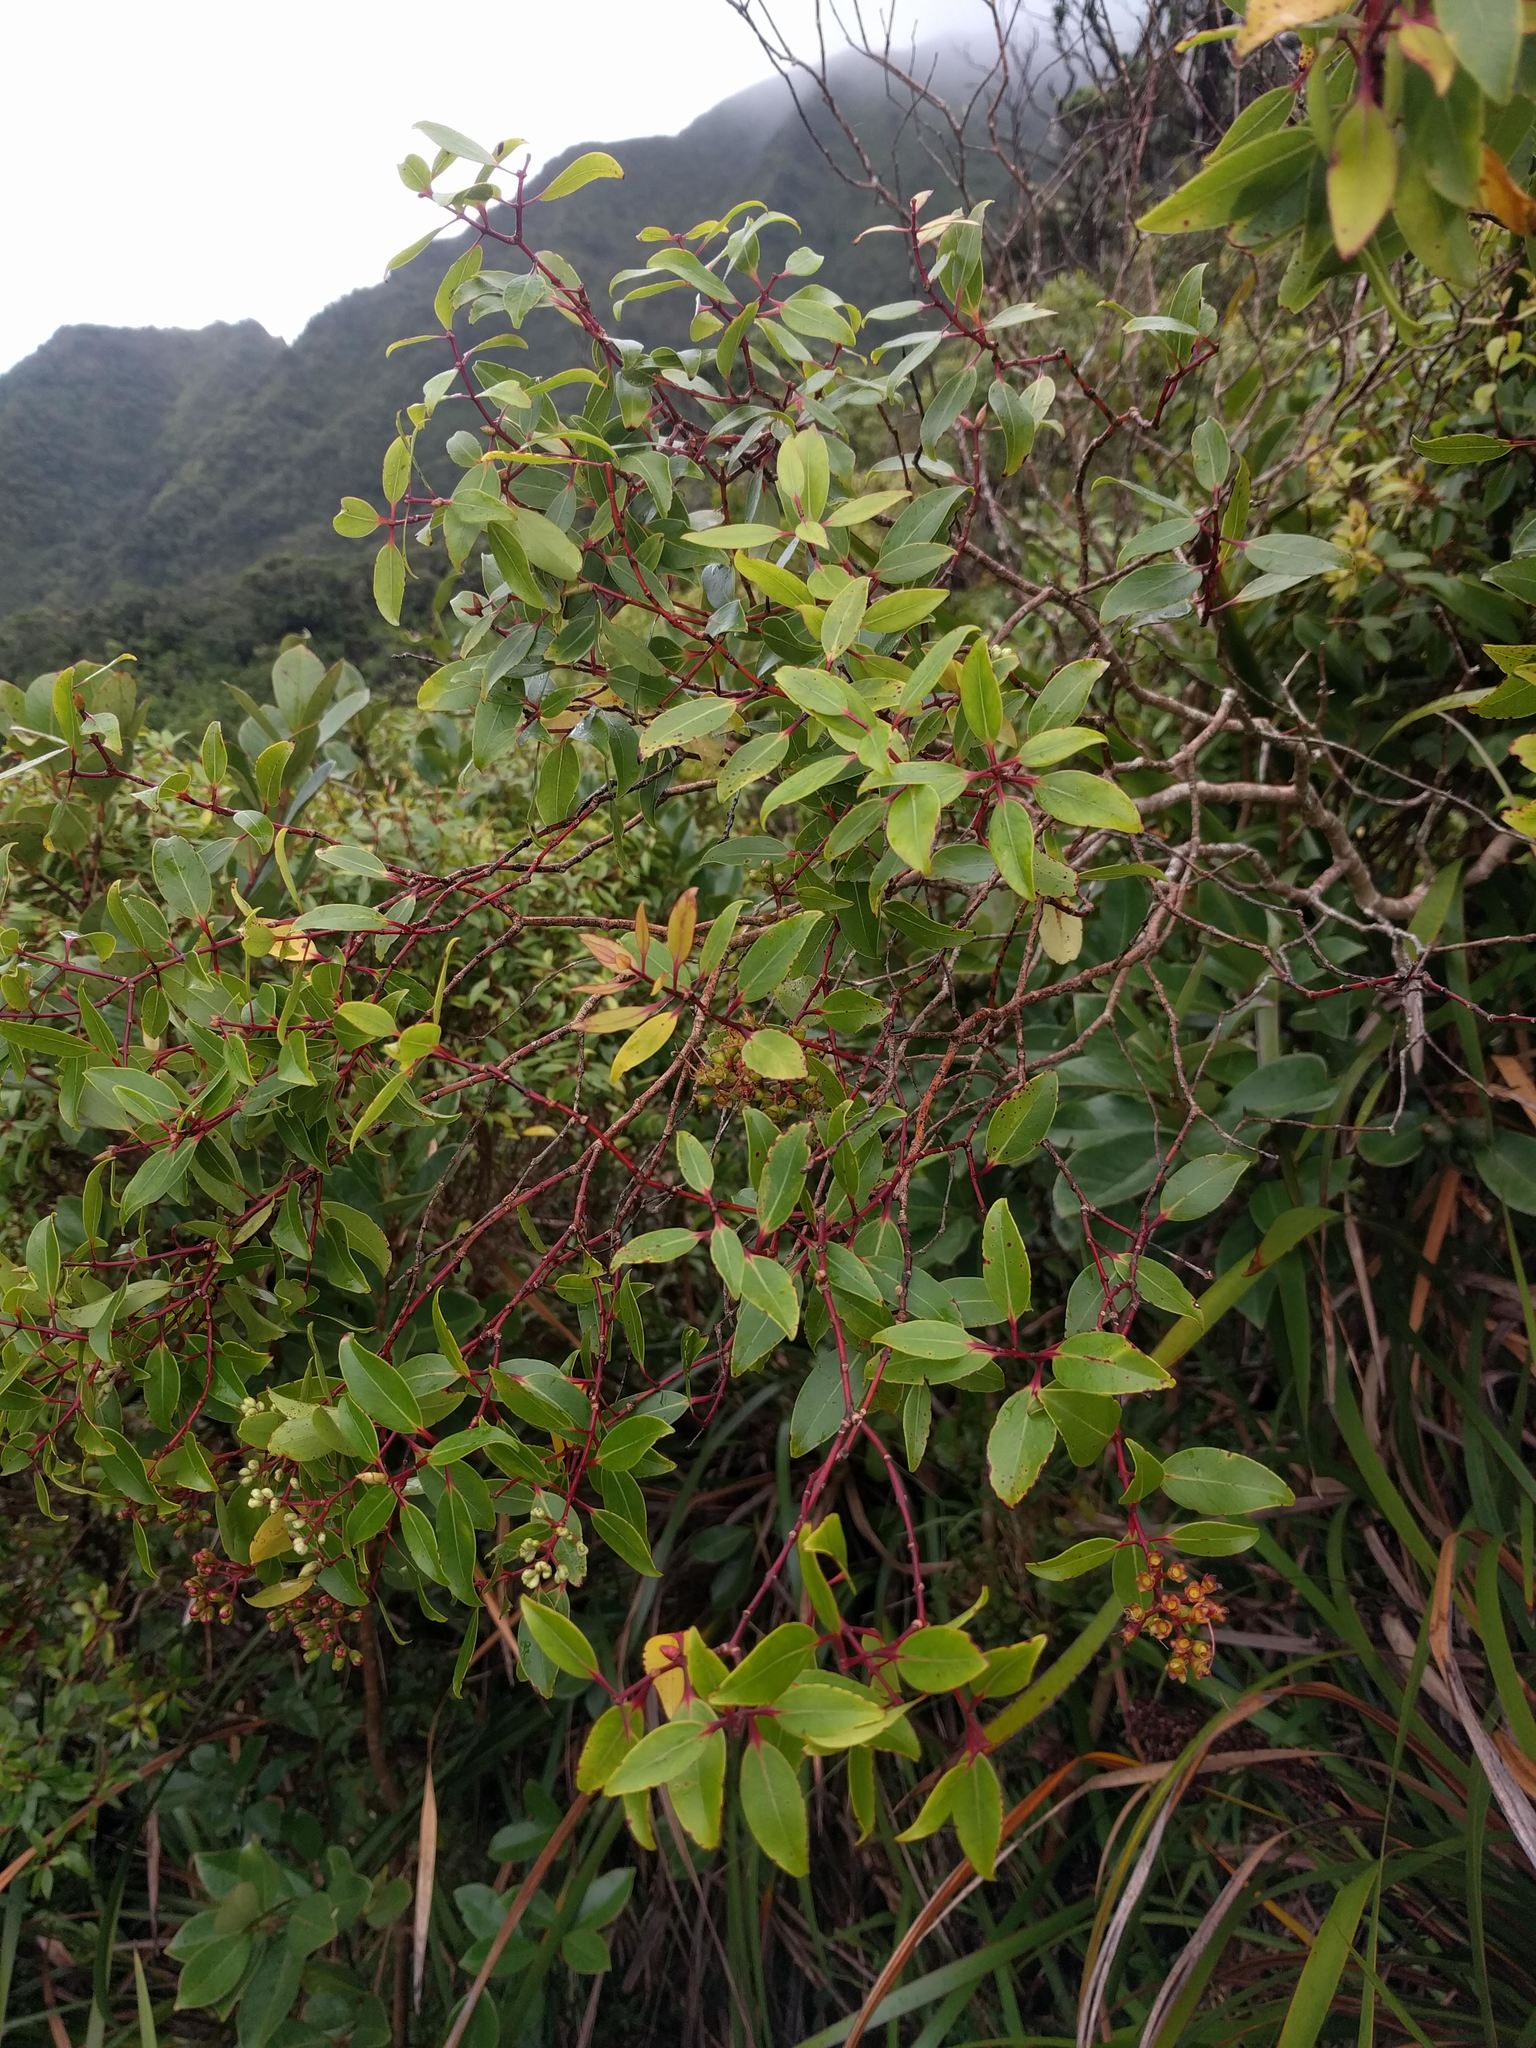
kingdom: Plantae
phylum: Tracheophyta
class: Magnoliopsida
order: Myrtales
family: Myrtaceae
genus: Metrosideros
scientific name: Metrosideros tremuloides
